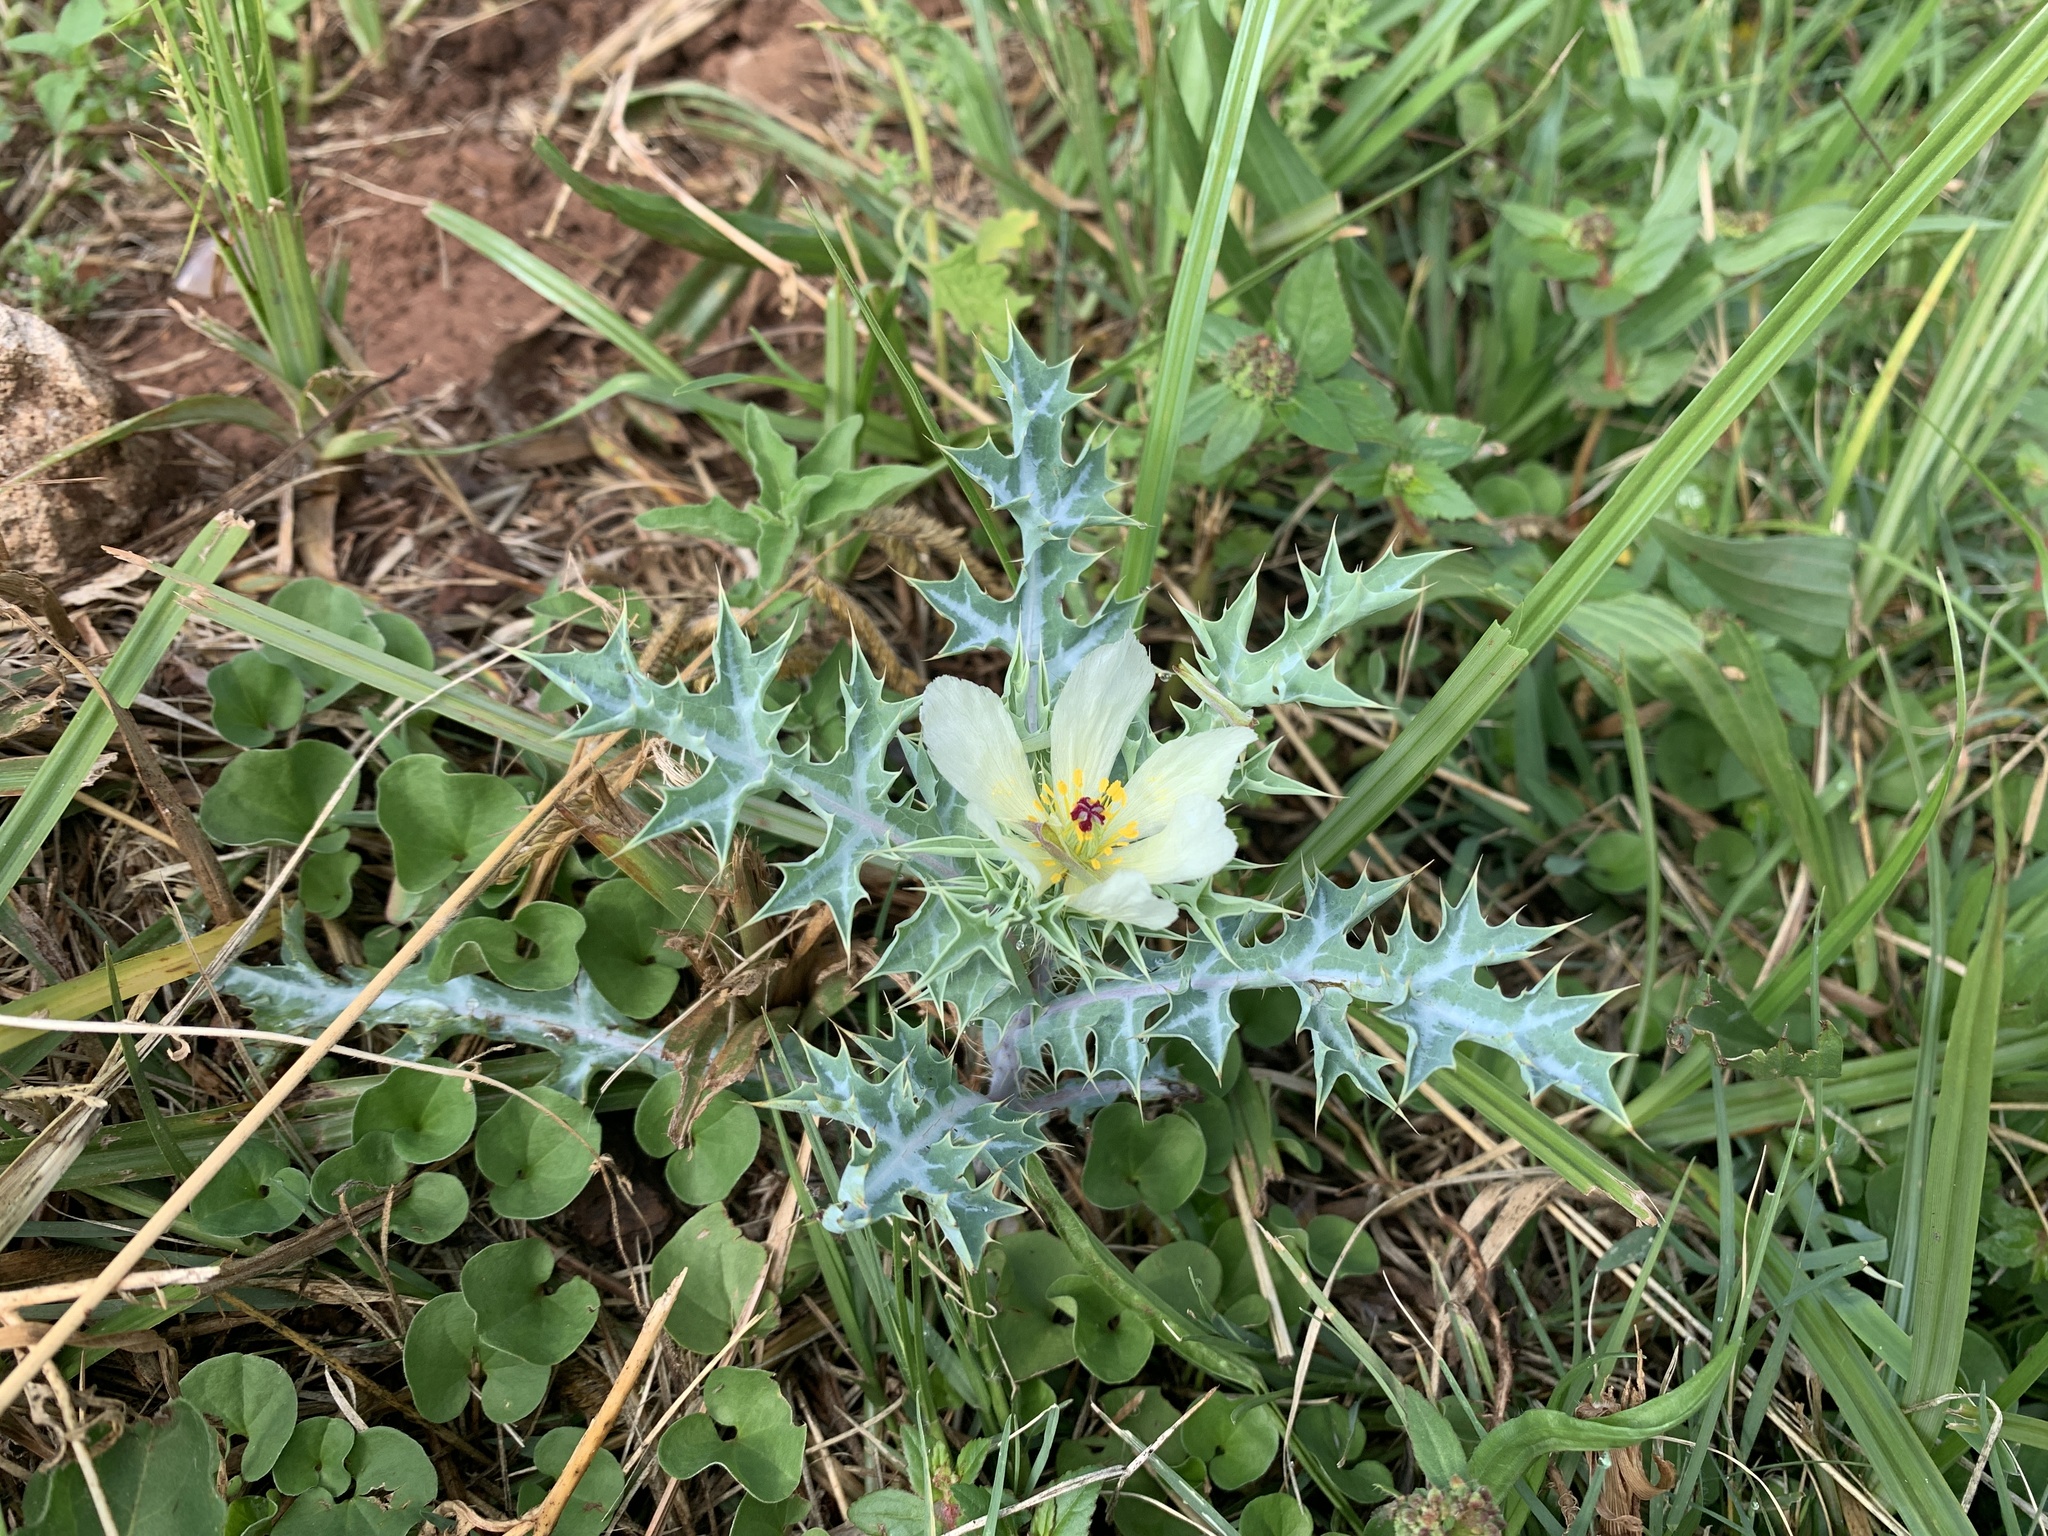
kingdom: Plantae
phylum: Tracheophyta
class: Magnoliopsida
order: Ranunculales
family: Papaveraceae
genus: Argemone
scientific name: Argemone ochroleuca
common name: White-flower mexican-poppy
